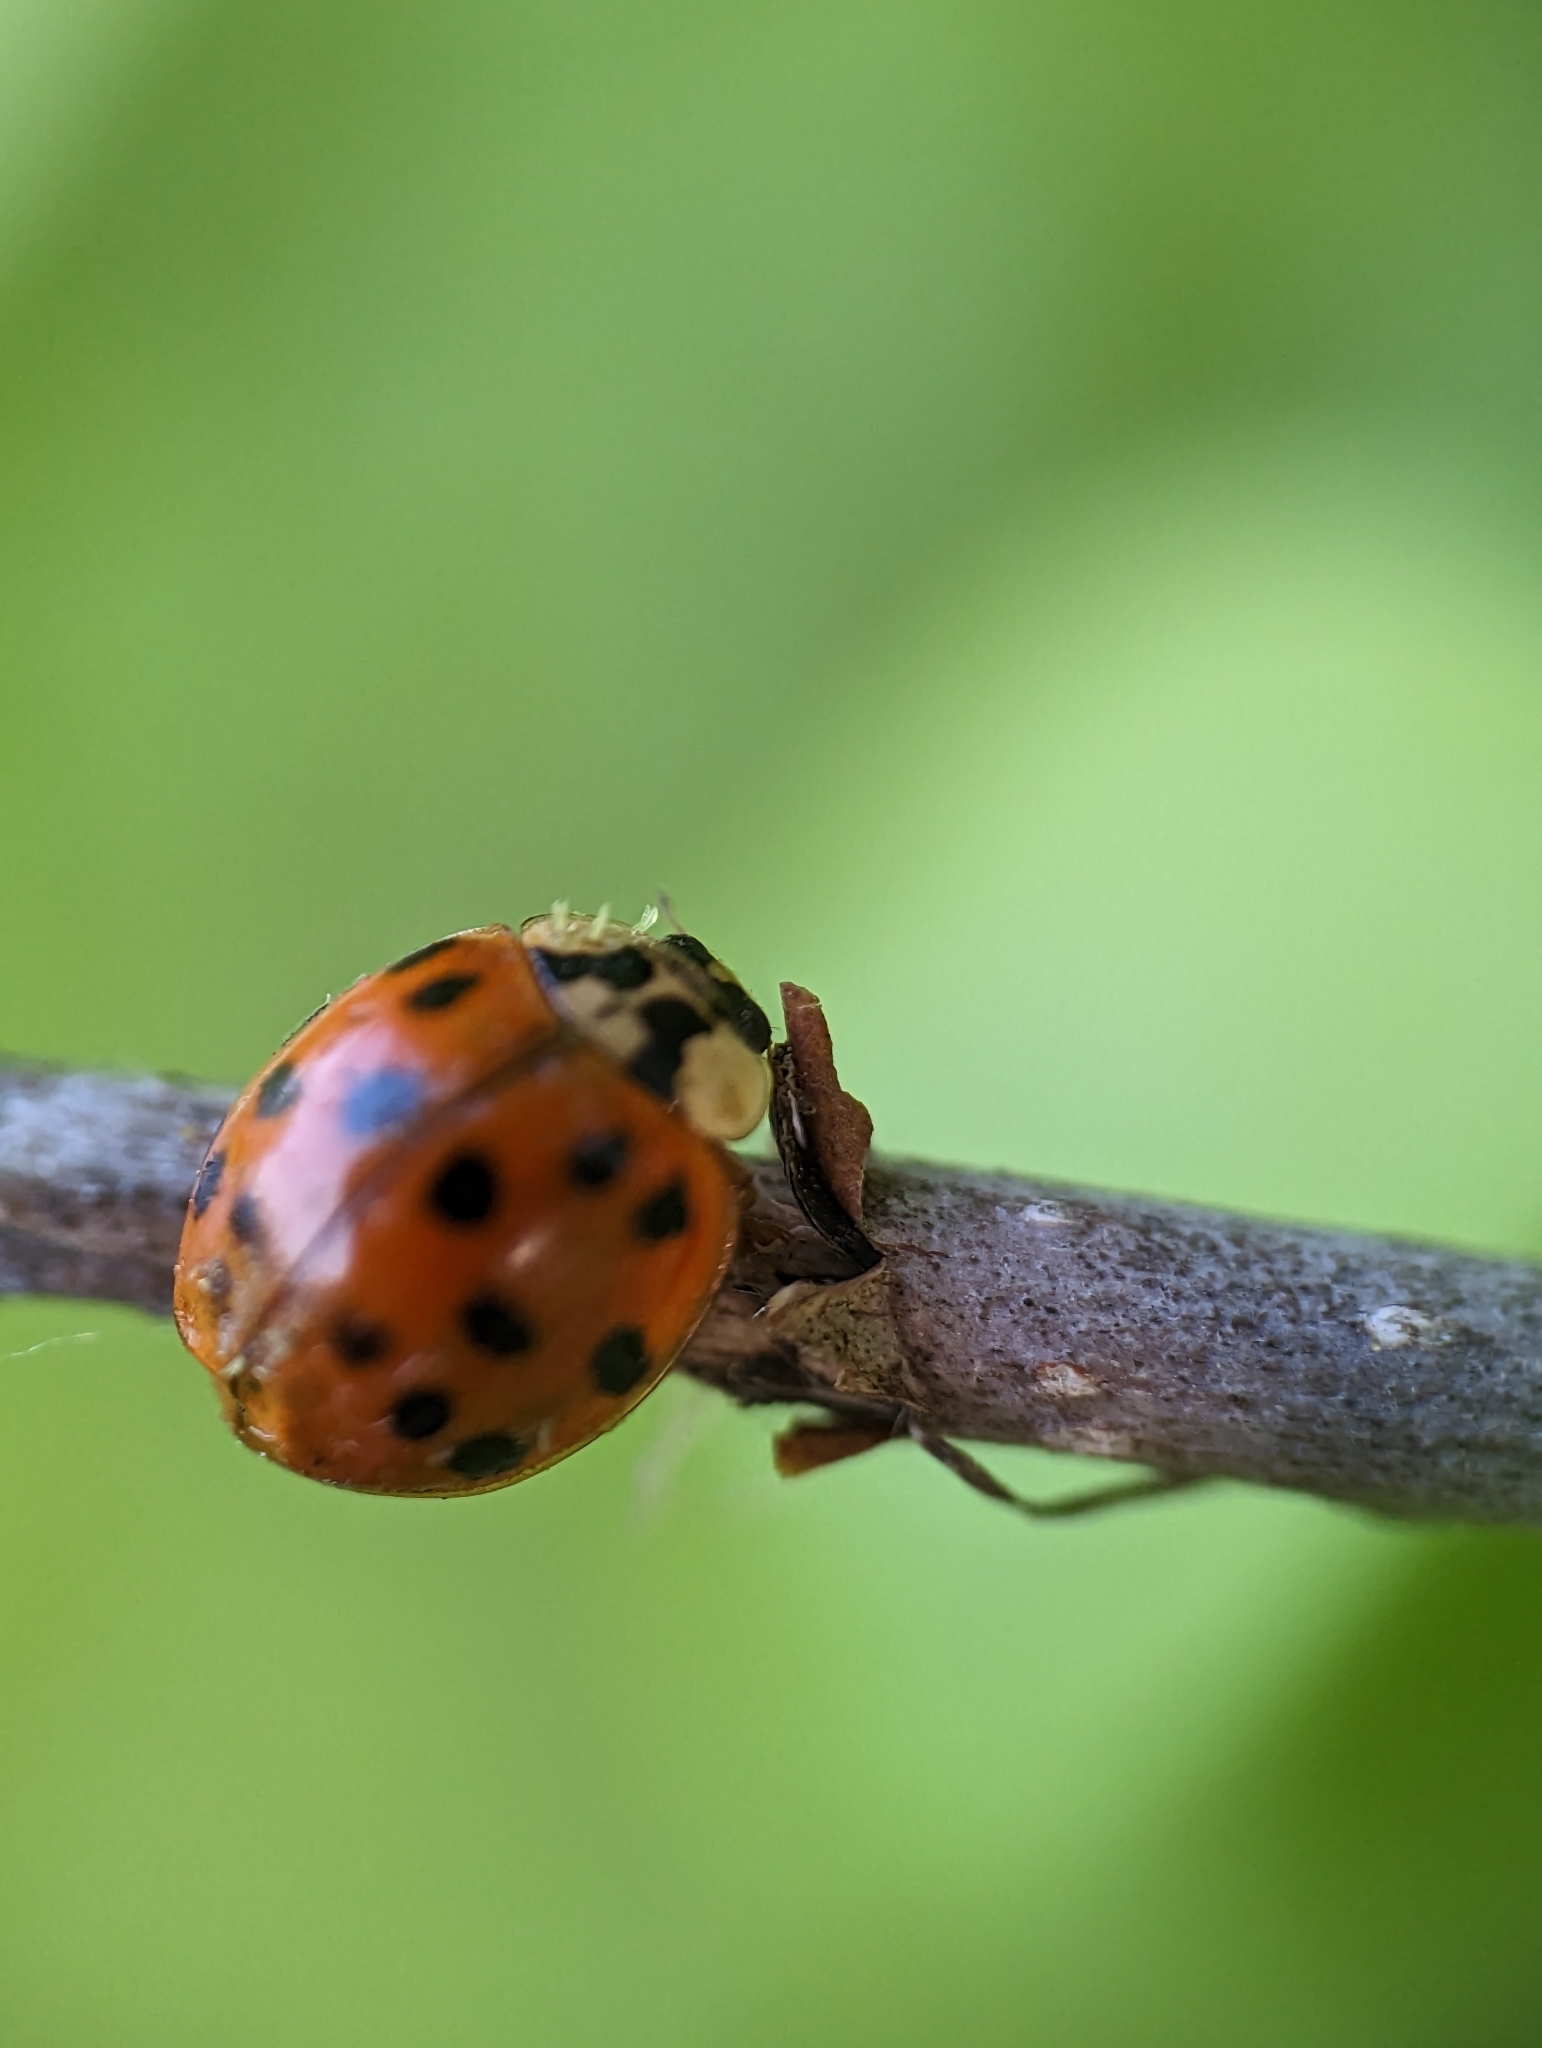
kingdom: Animalia
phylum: Arthropoda
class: Insecta
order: Coleoptera
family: Coccinellidae
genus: Harmonia
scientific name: Harmonia axyridis
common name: Harlequin ladybird
